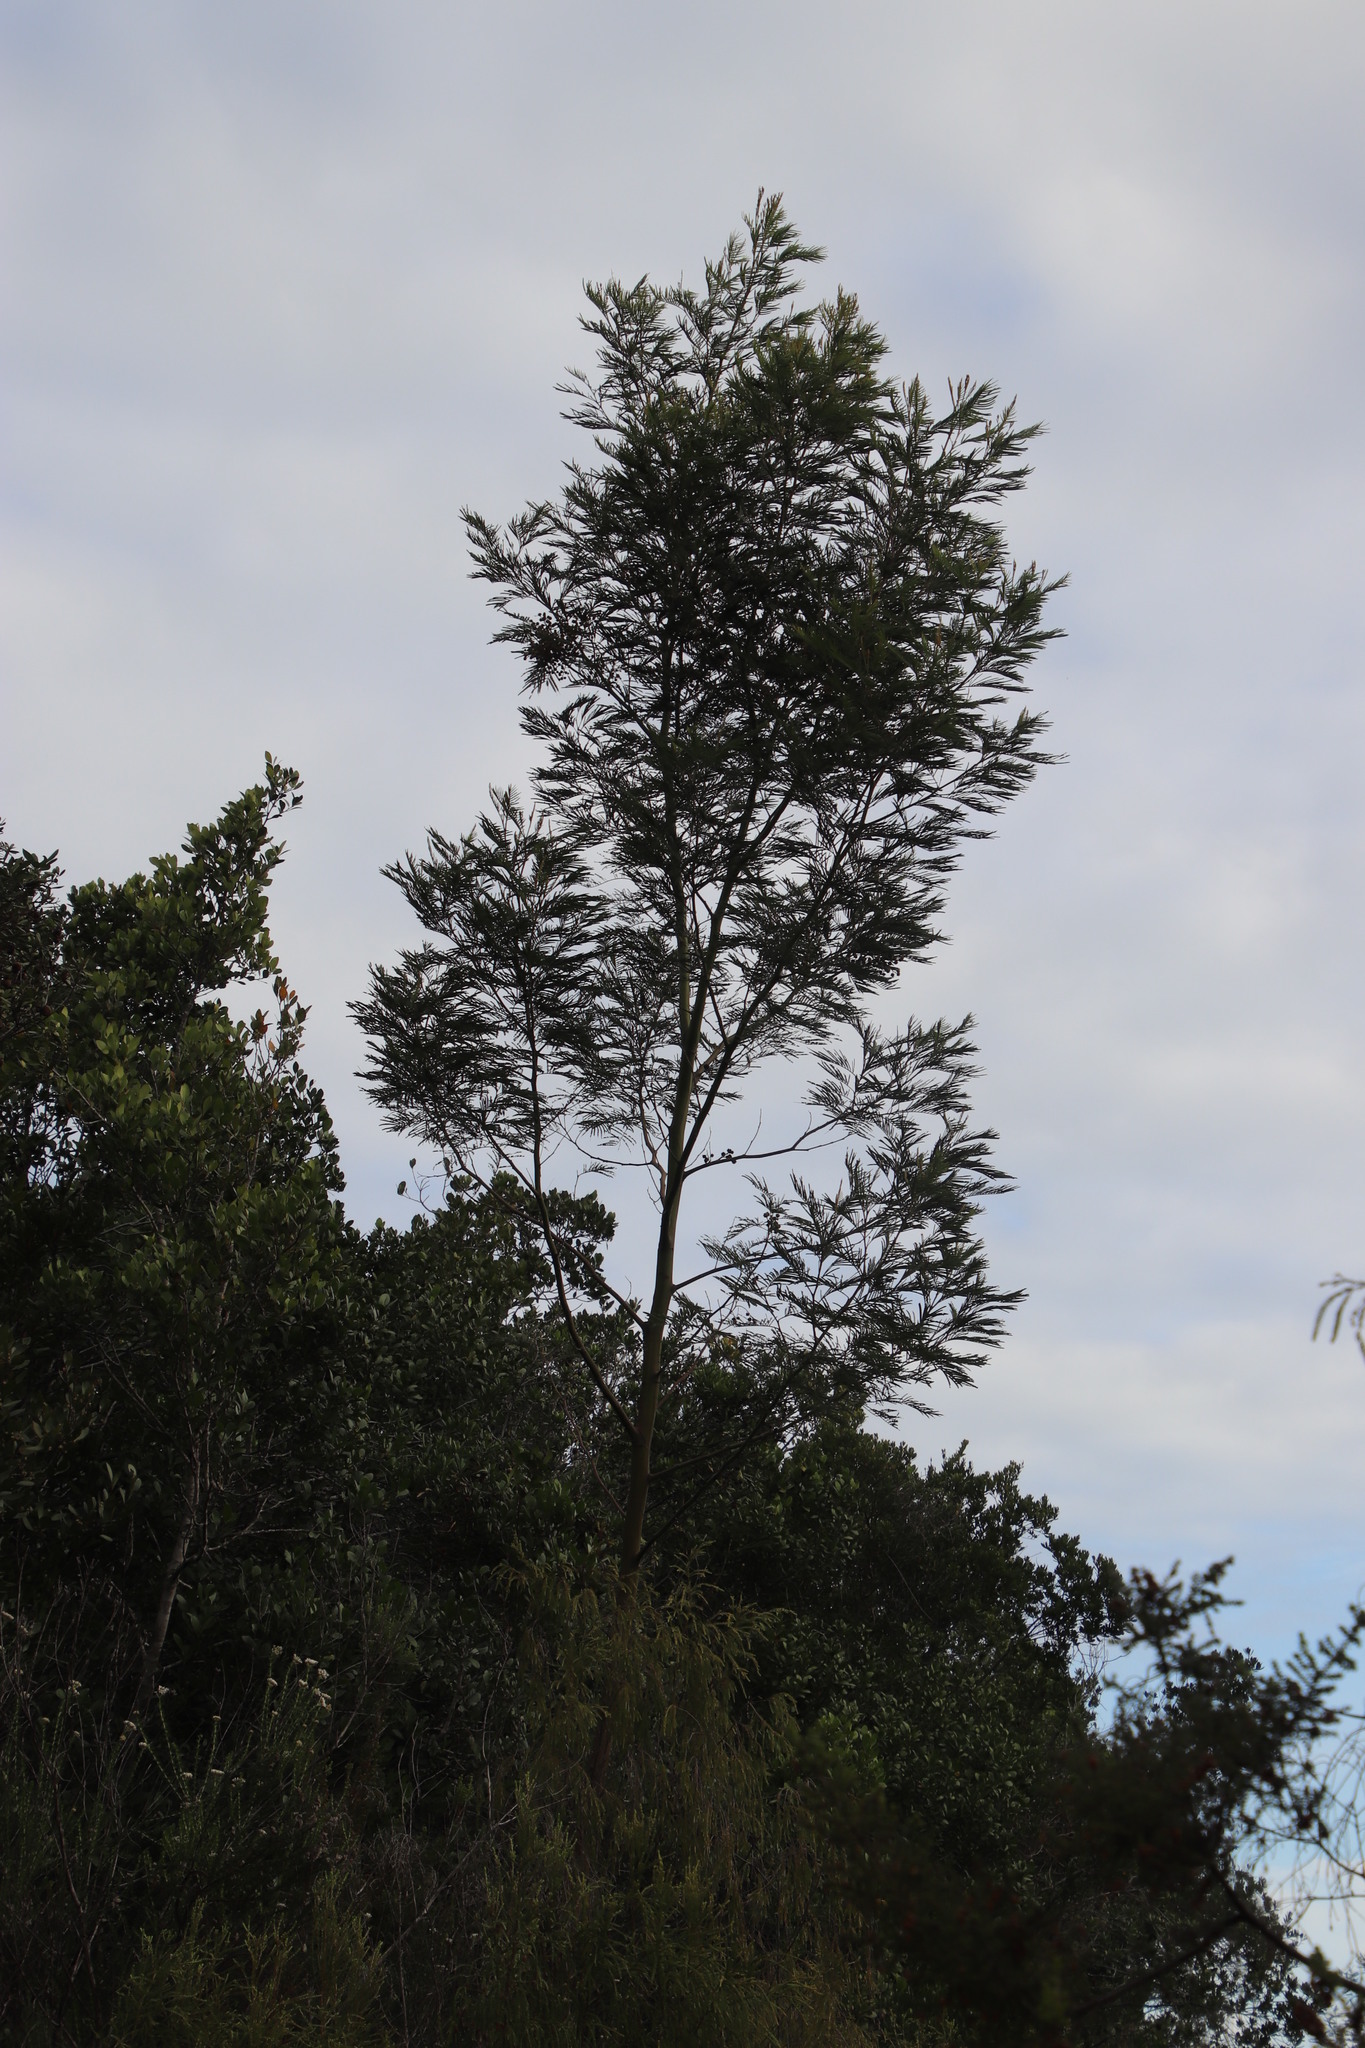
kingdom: Plantae
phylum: Tracheophyta
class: Magnoliopsida
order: Fabales
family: Fabaceae
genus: Acacia
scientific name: Acacia mearnsii
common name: Black wattle
